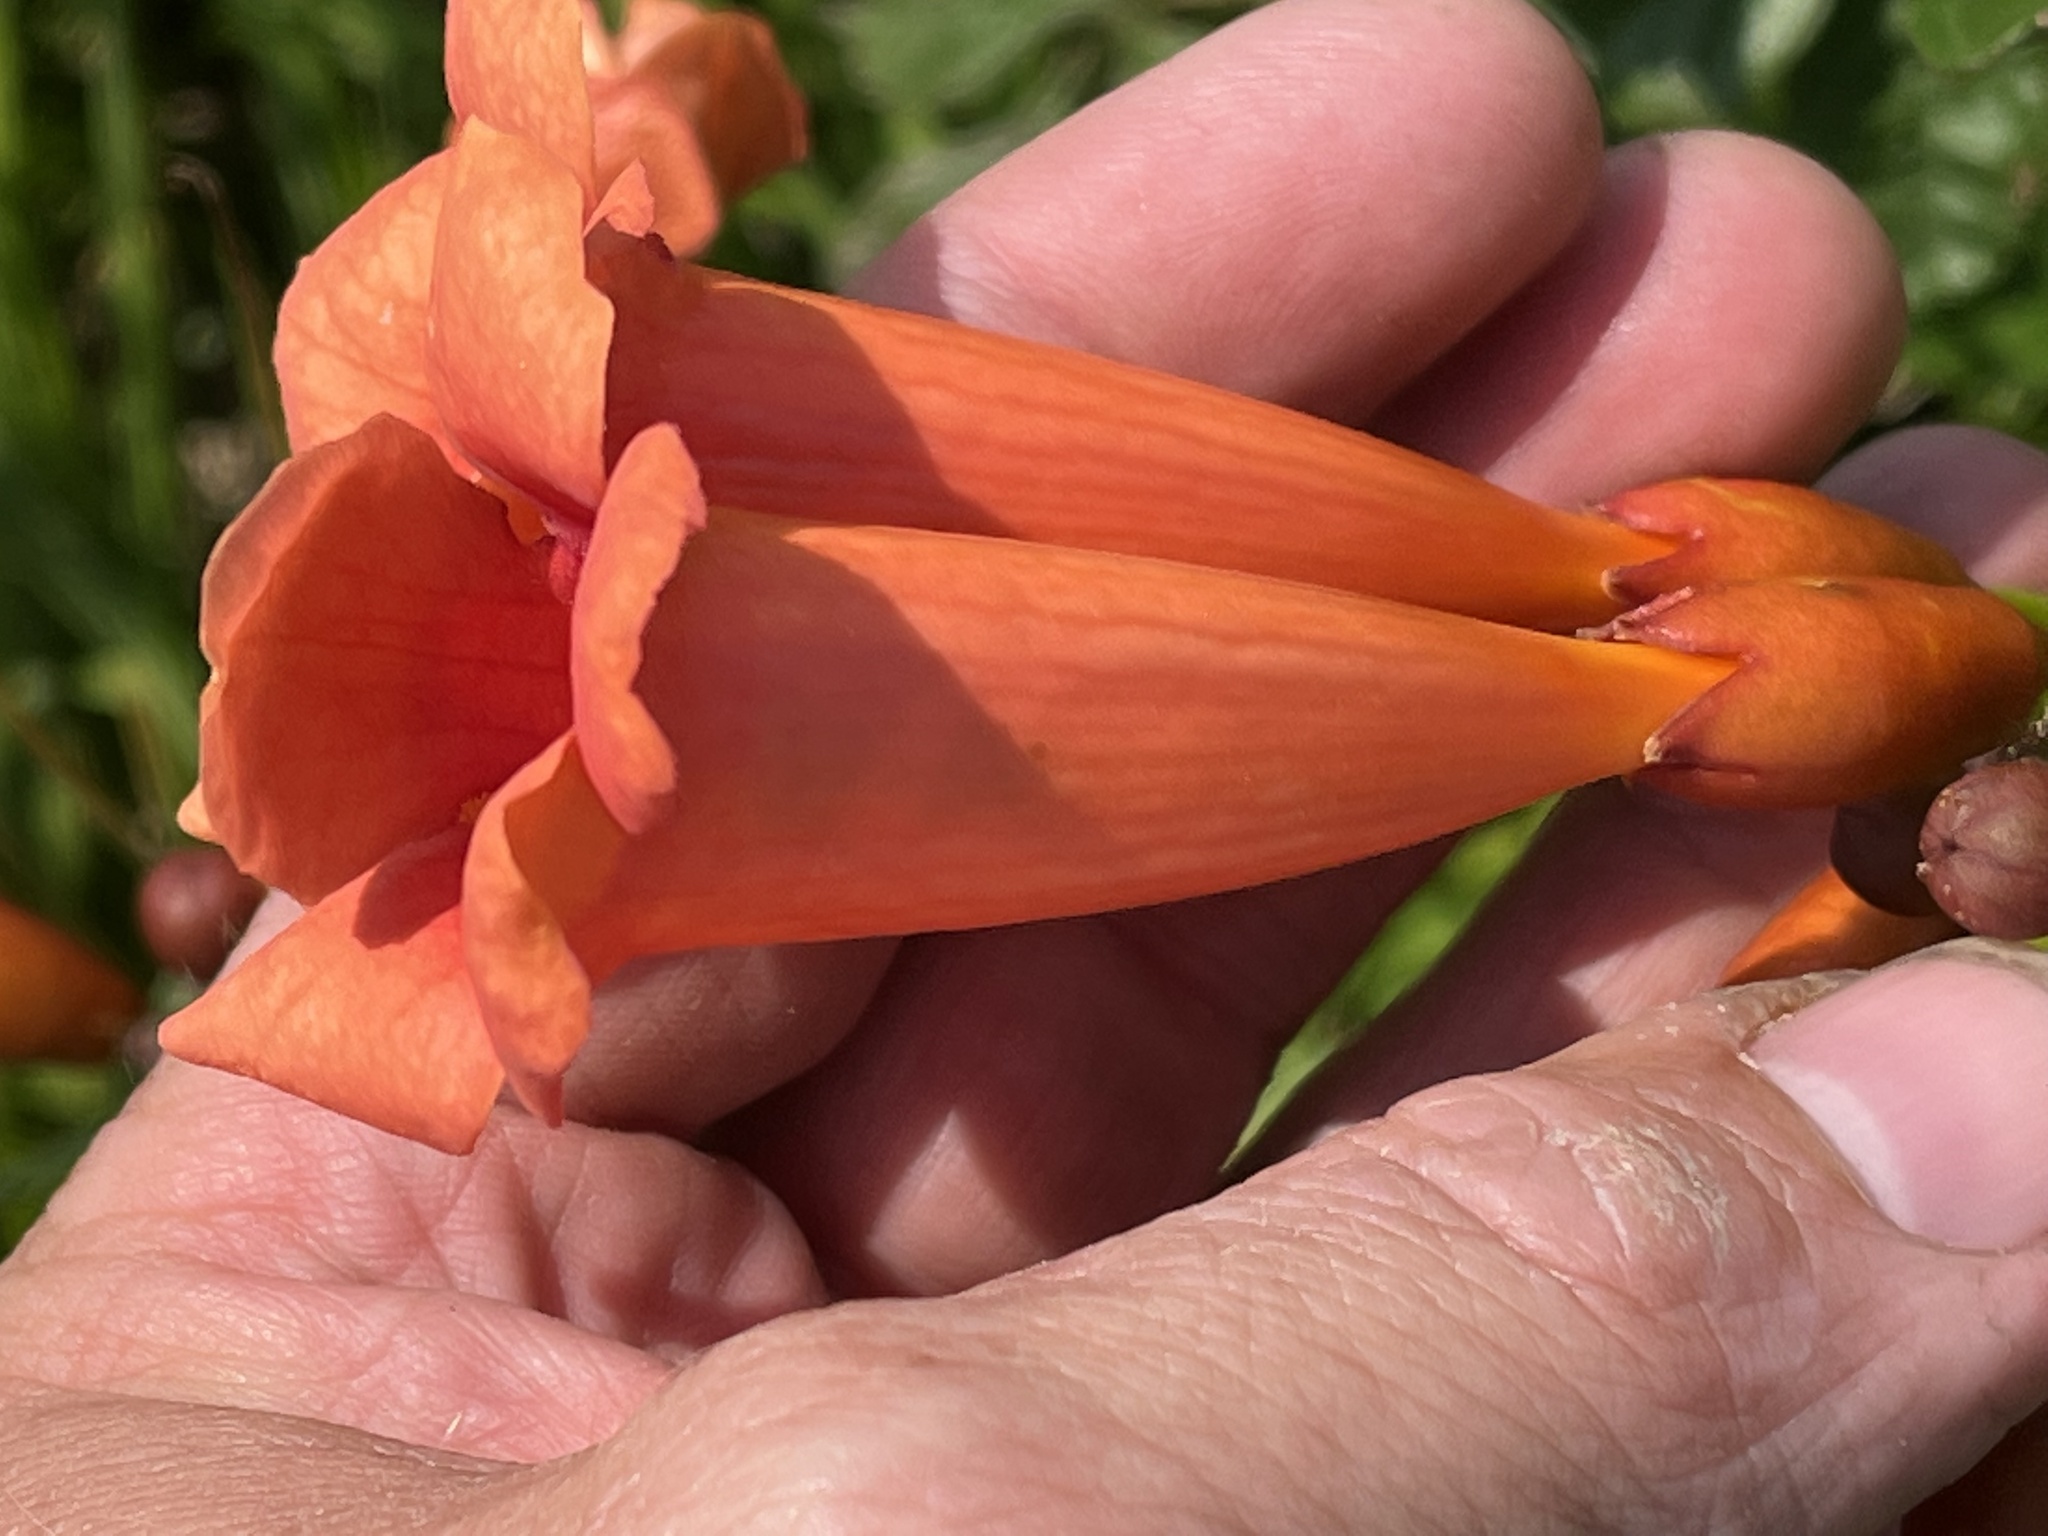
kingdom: Plantae
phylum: Tracheophyta
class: Magnoliopsida
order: Lamiales
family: Bignoniaceae
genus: Campsis
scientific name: Campsis radicans
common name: Trumpet-creeper
